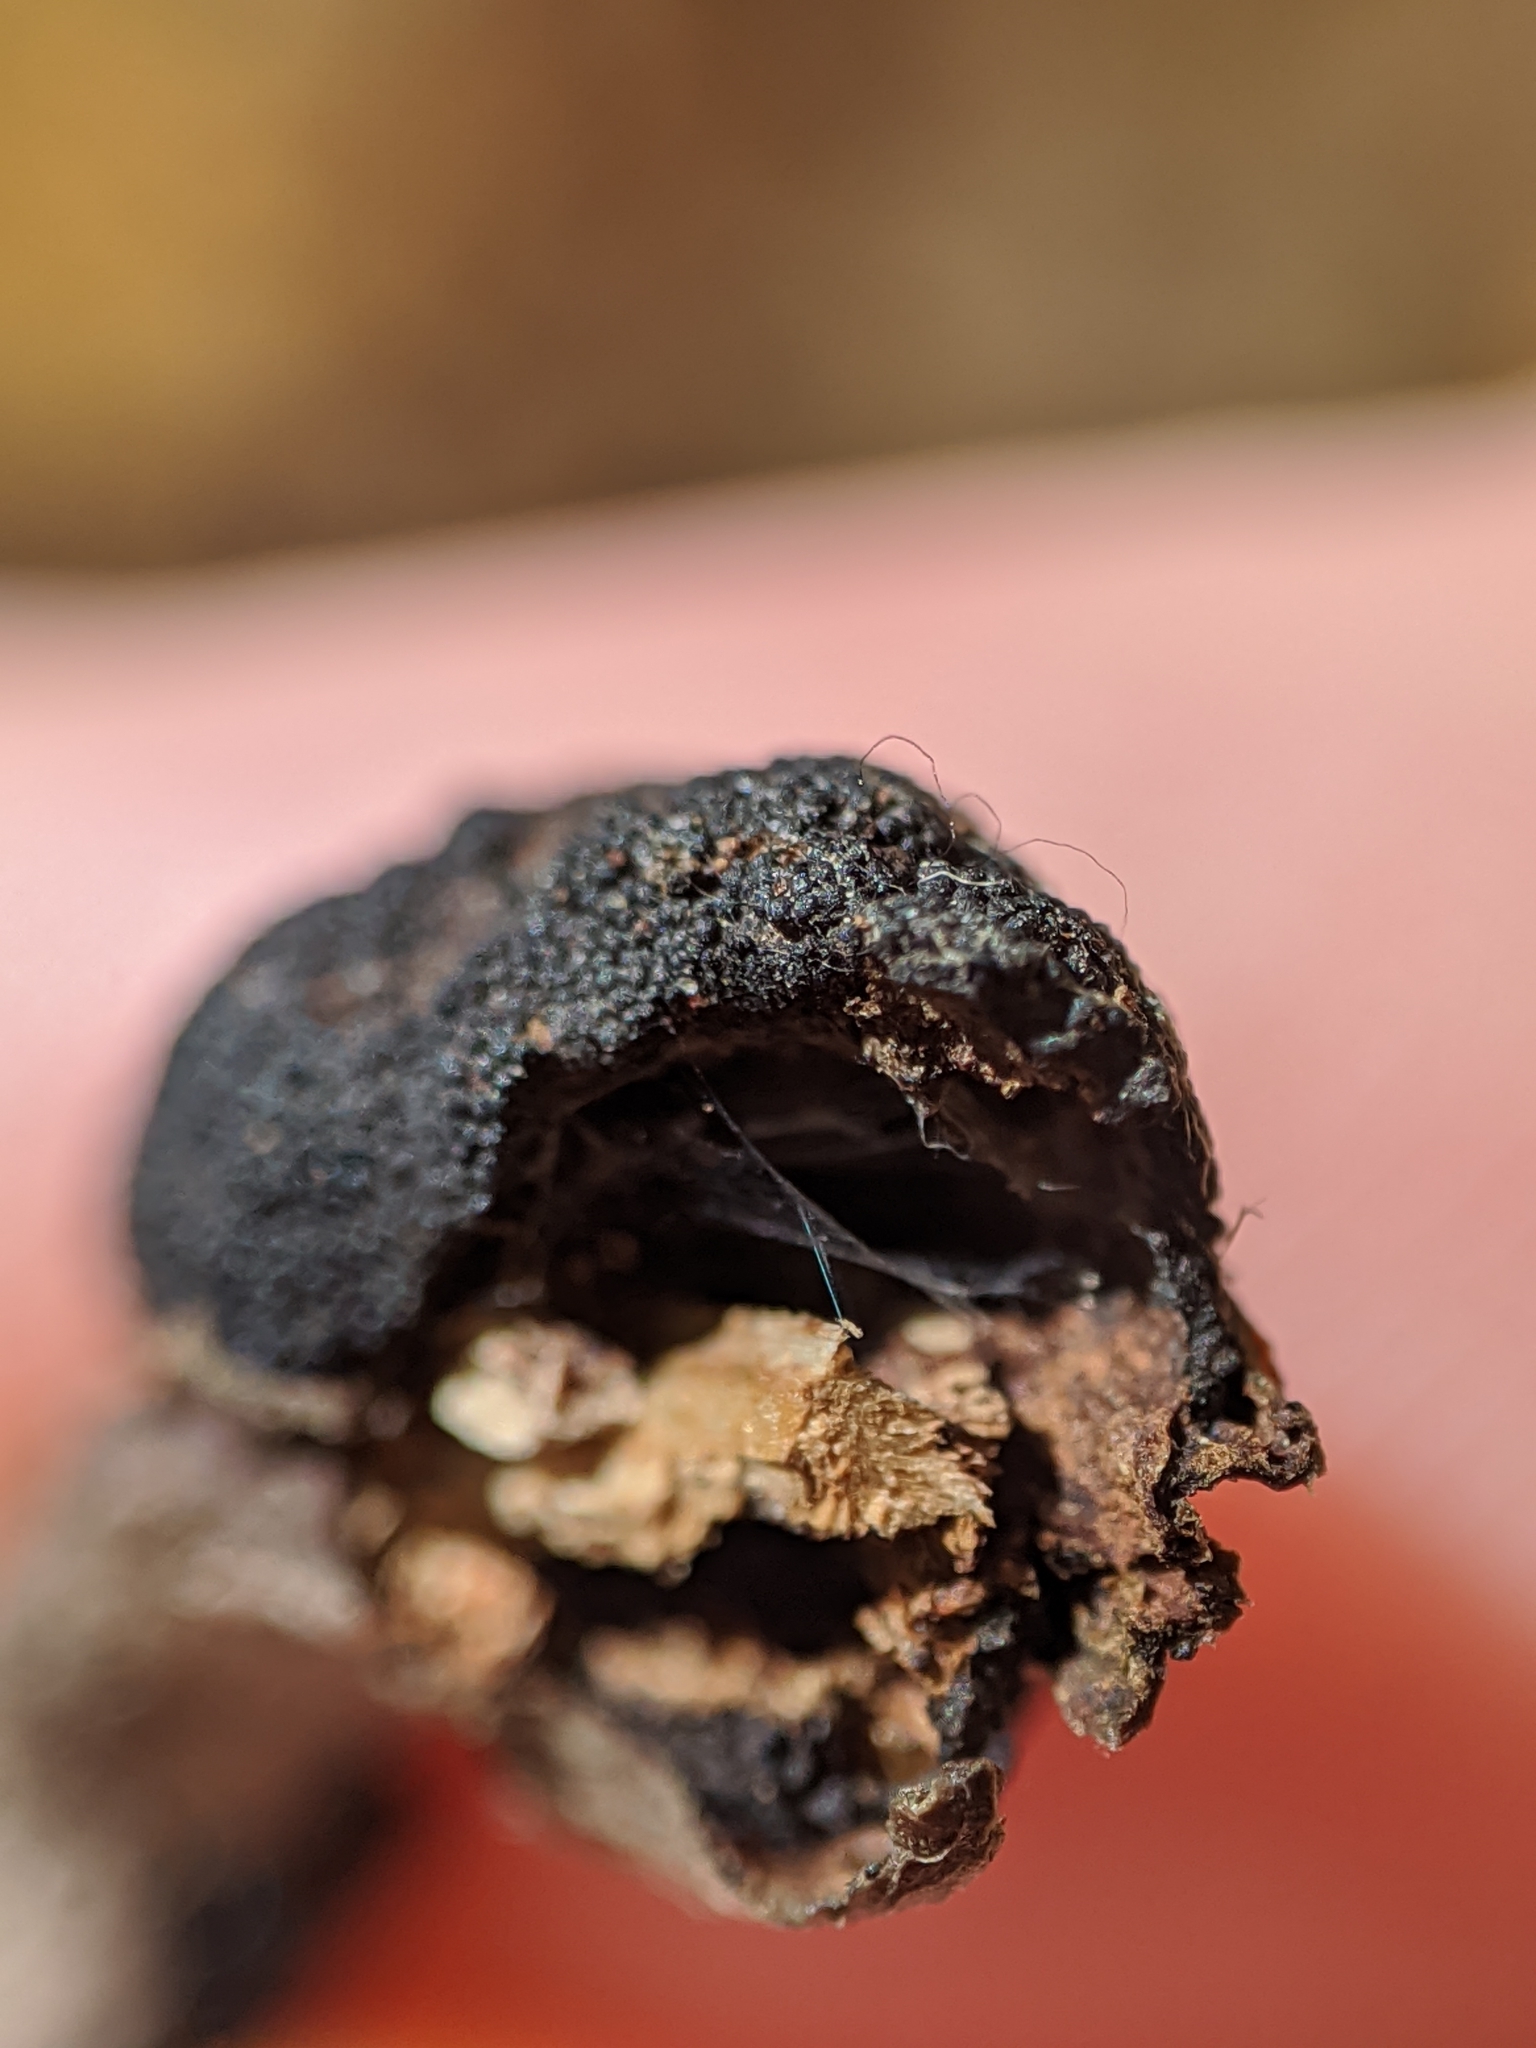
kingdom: Fungi
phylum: Ascomycota
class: Dothideomycetes
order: Venturiales
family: Venturiaceae
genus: Apiosporina
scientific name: Apiosporina morbosa
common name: Black knot
